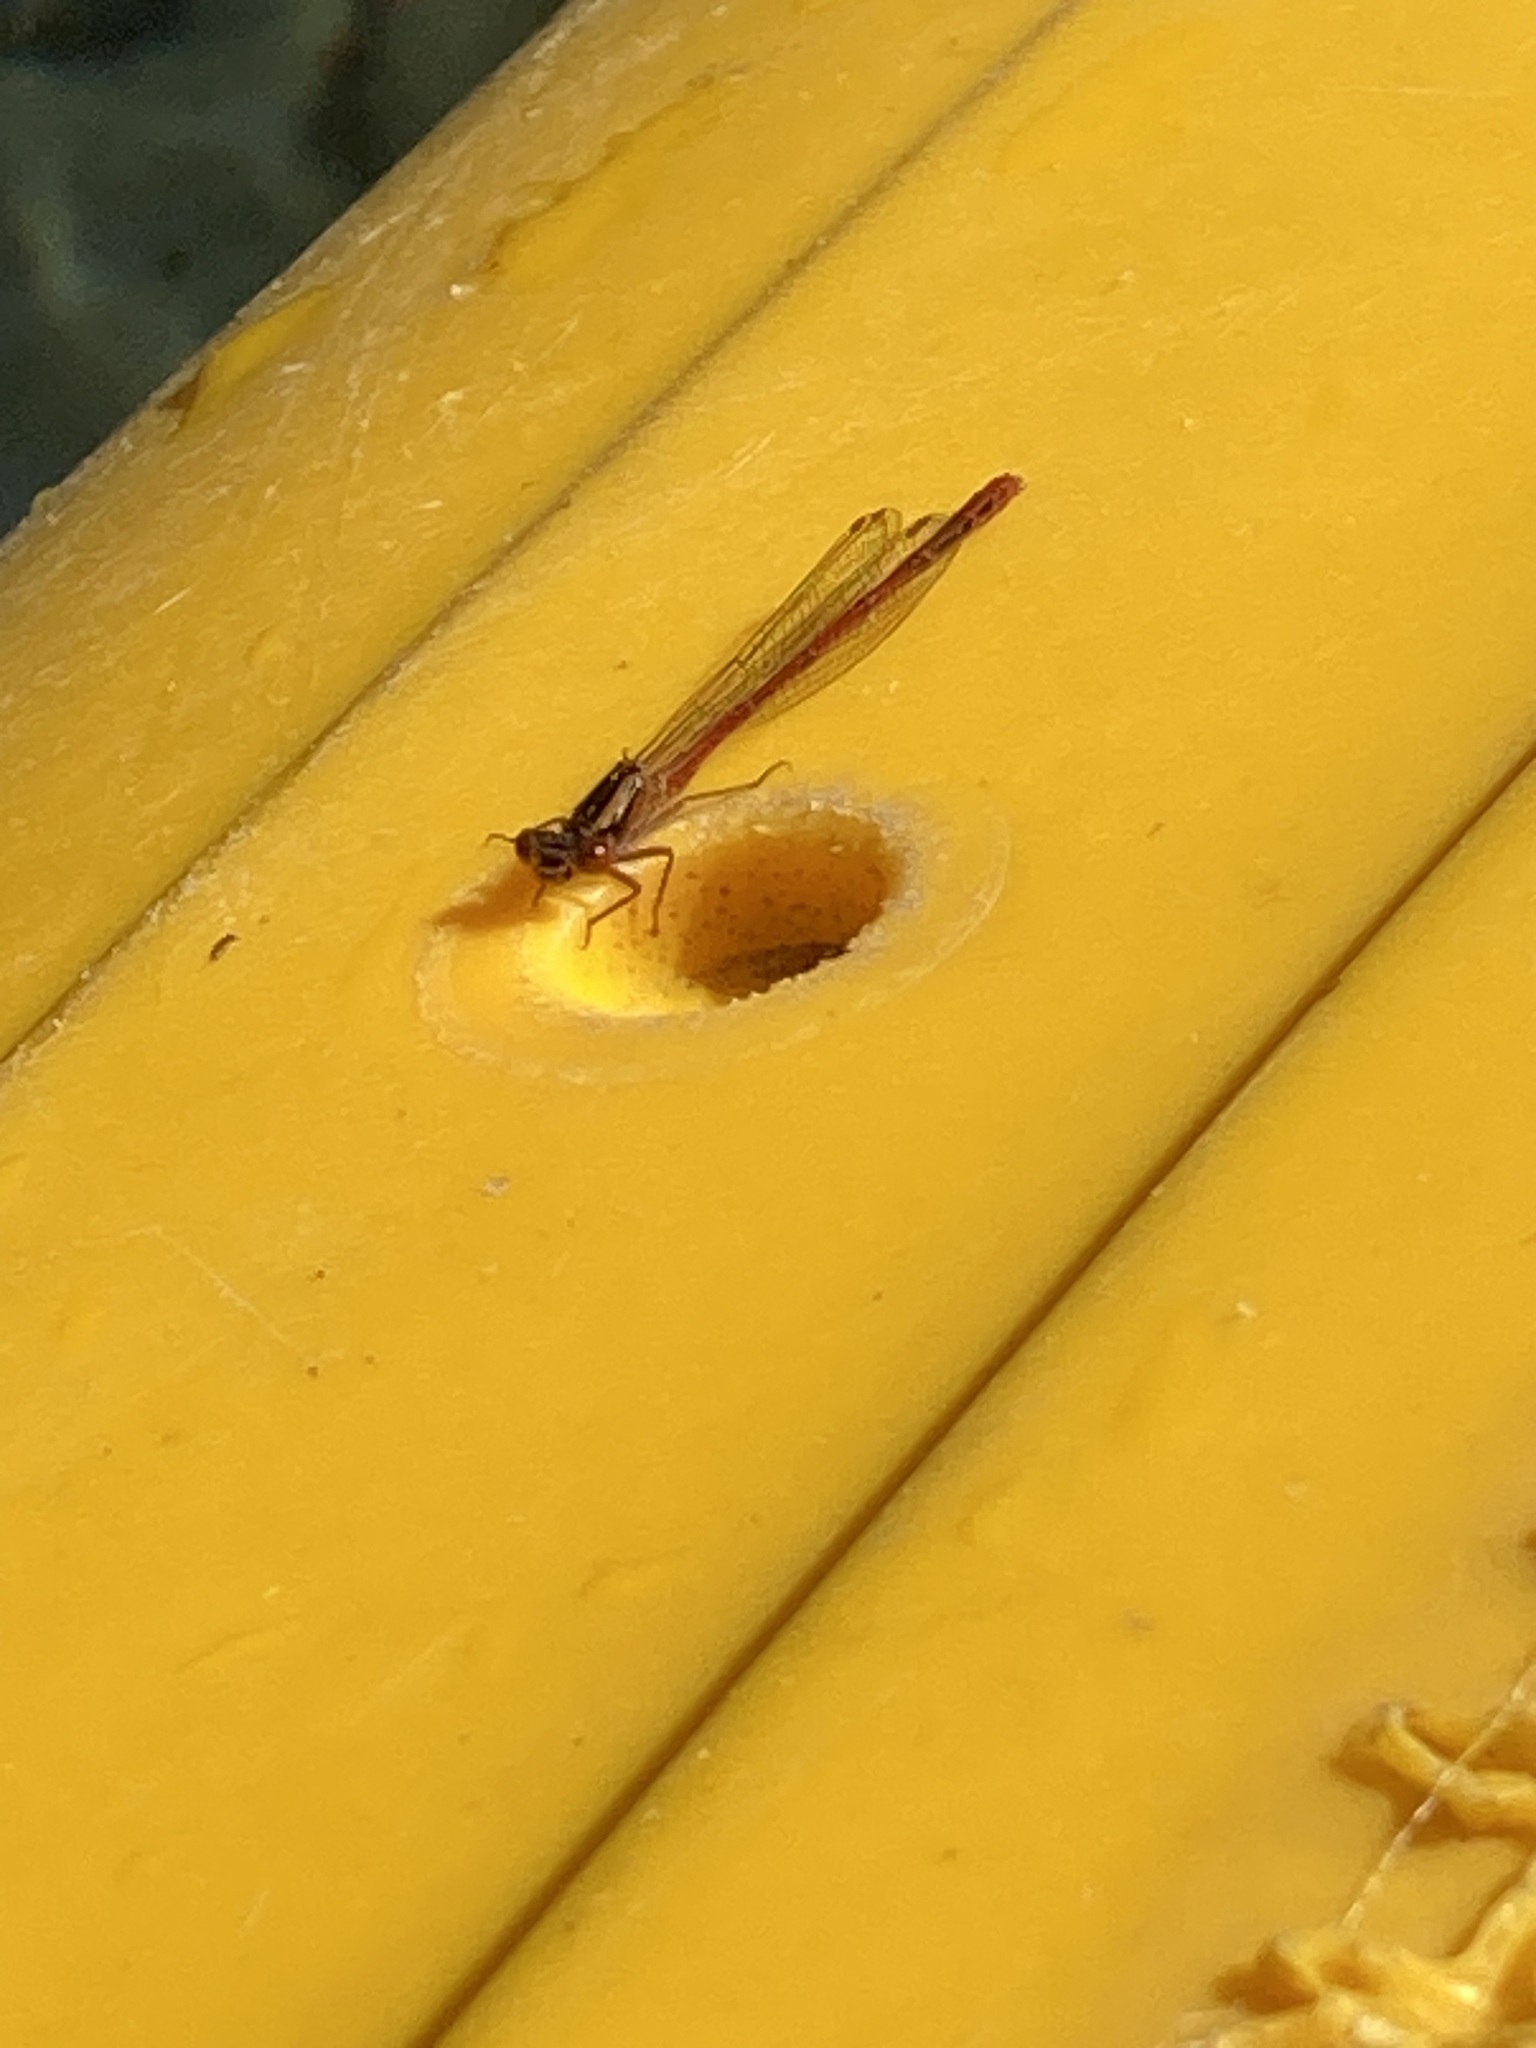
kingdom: Animalia
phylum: Arthropoda
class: Insecta
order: Odonata
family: Coenagrionidae
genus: Xanthocnemis
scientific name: Xanthocnemis zealandica
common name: Common redcoat damselfly
